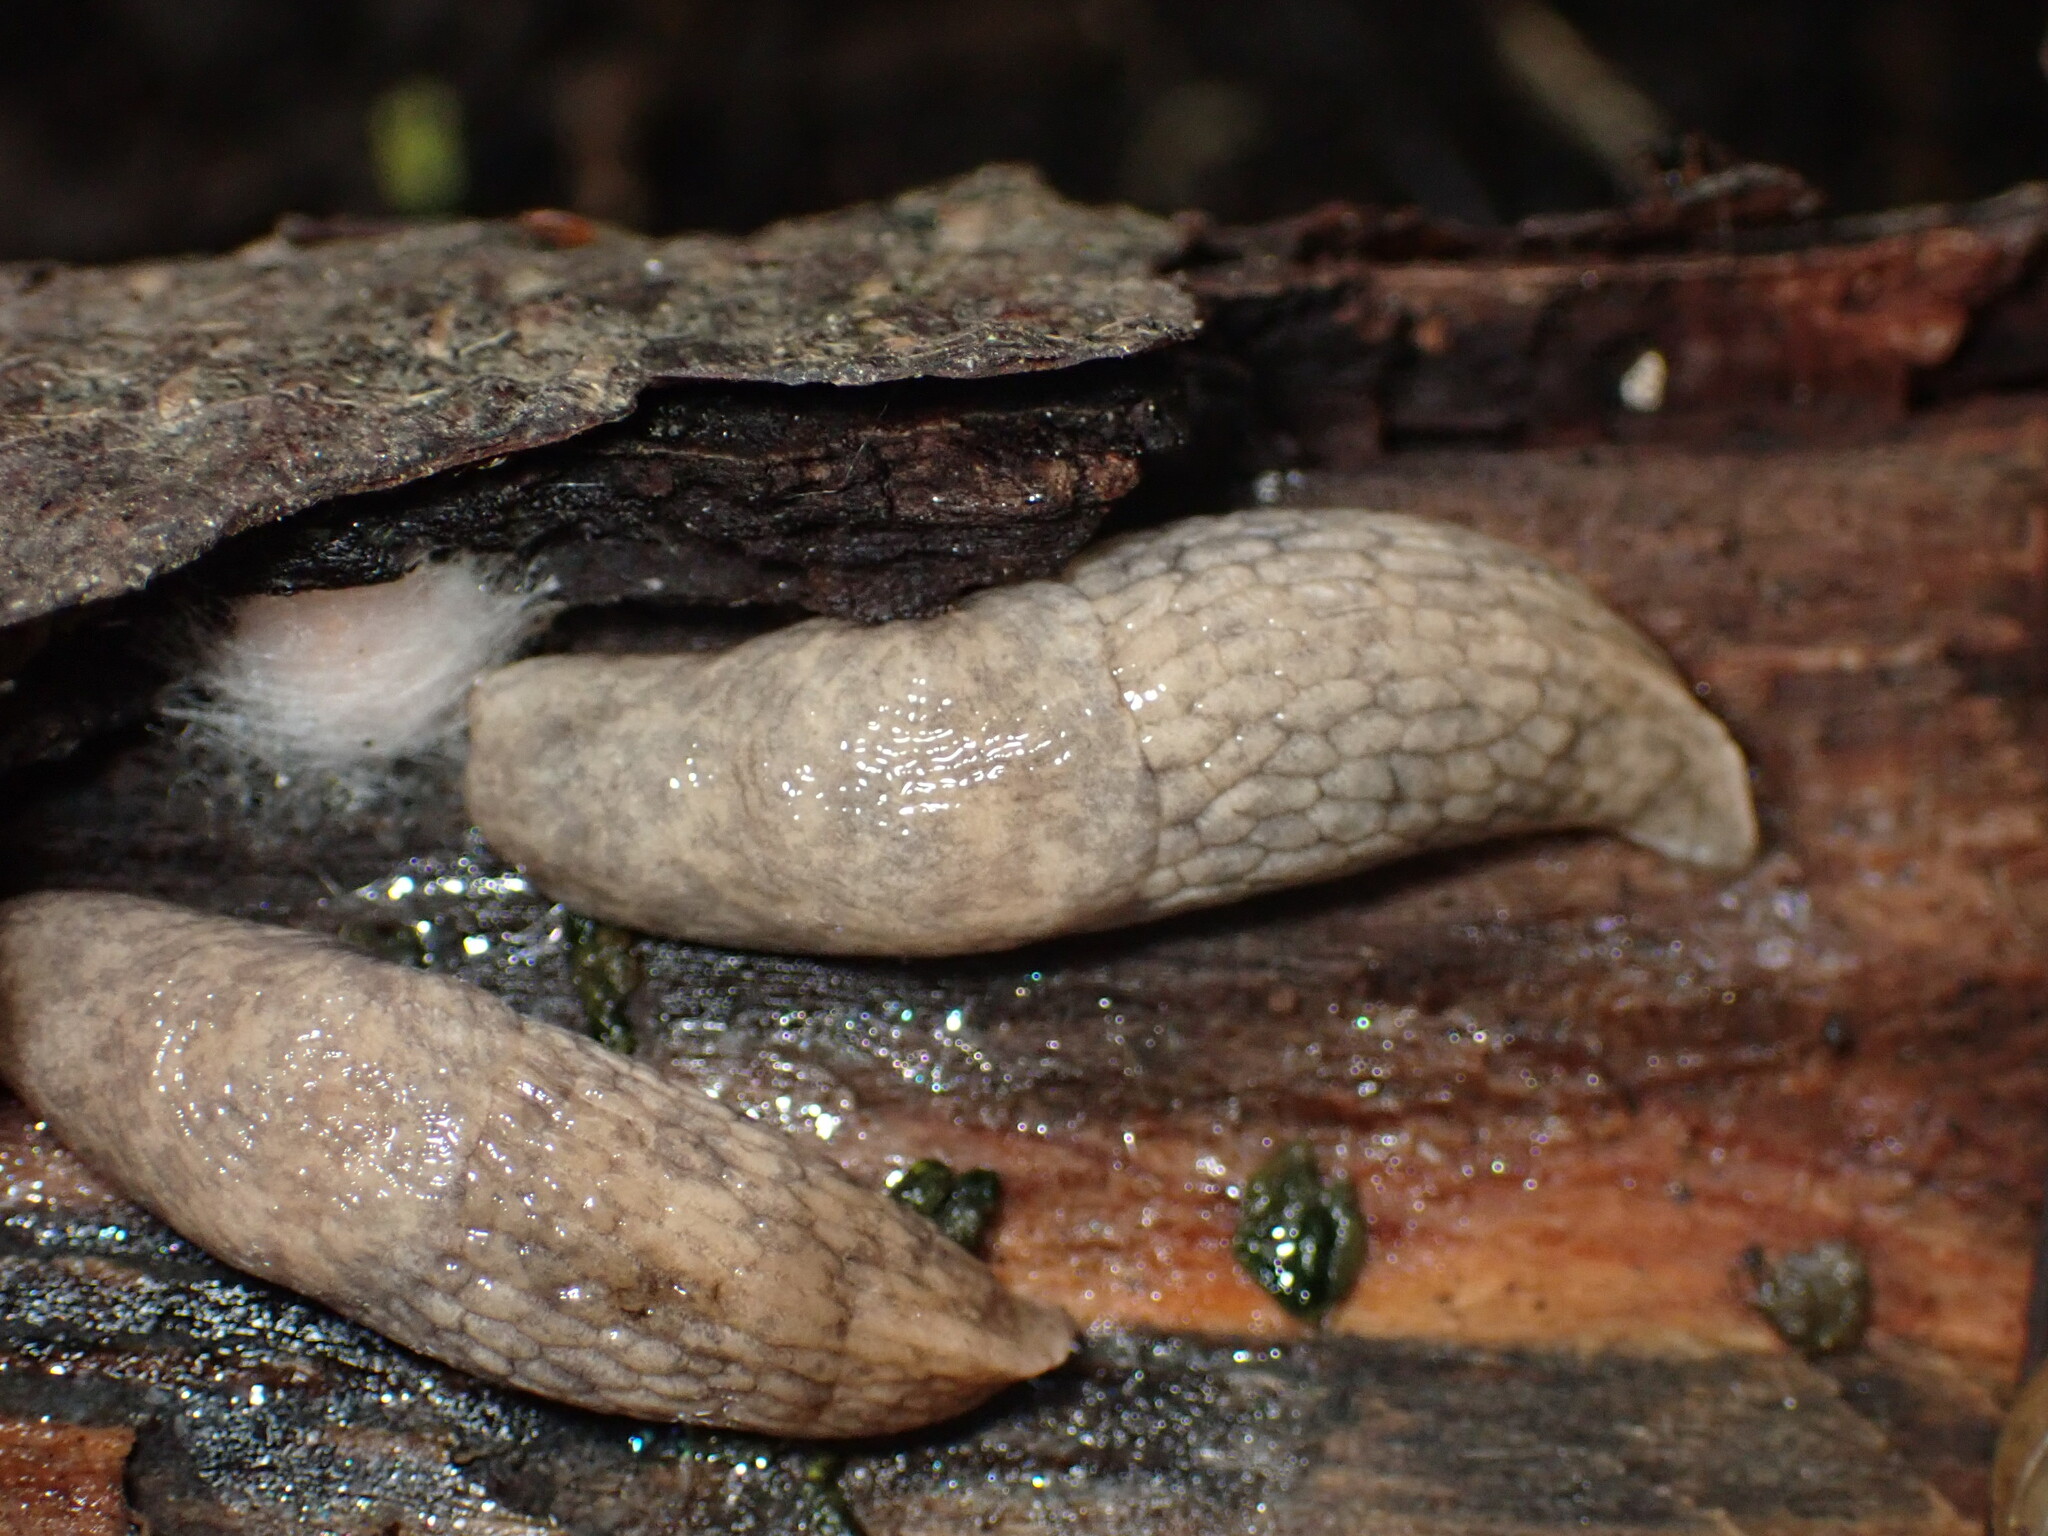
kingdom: Animalia
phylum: Mollusca
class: Gastropoda
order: Stylommatophora
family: Agriolimacidae
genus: Deroceras
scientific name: Deroceras reticulatum
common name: Gray field slug
